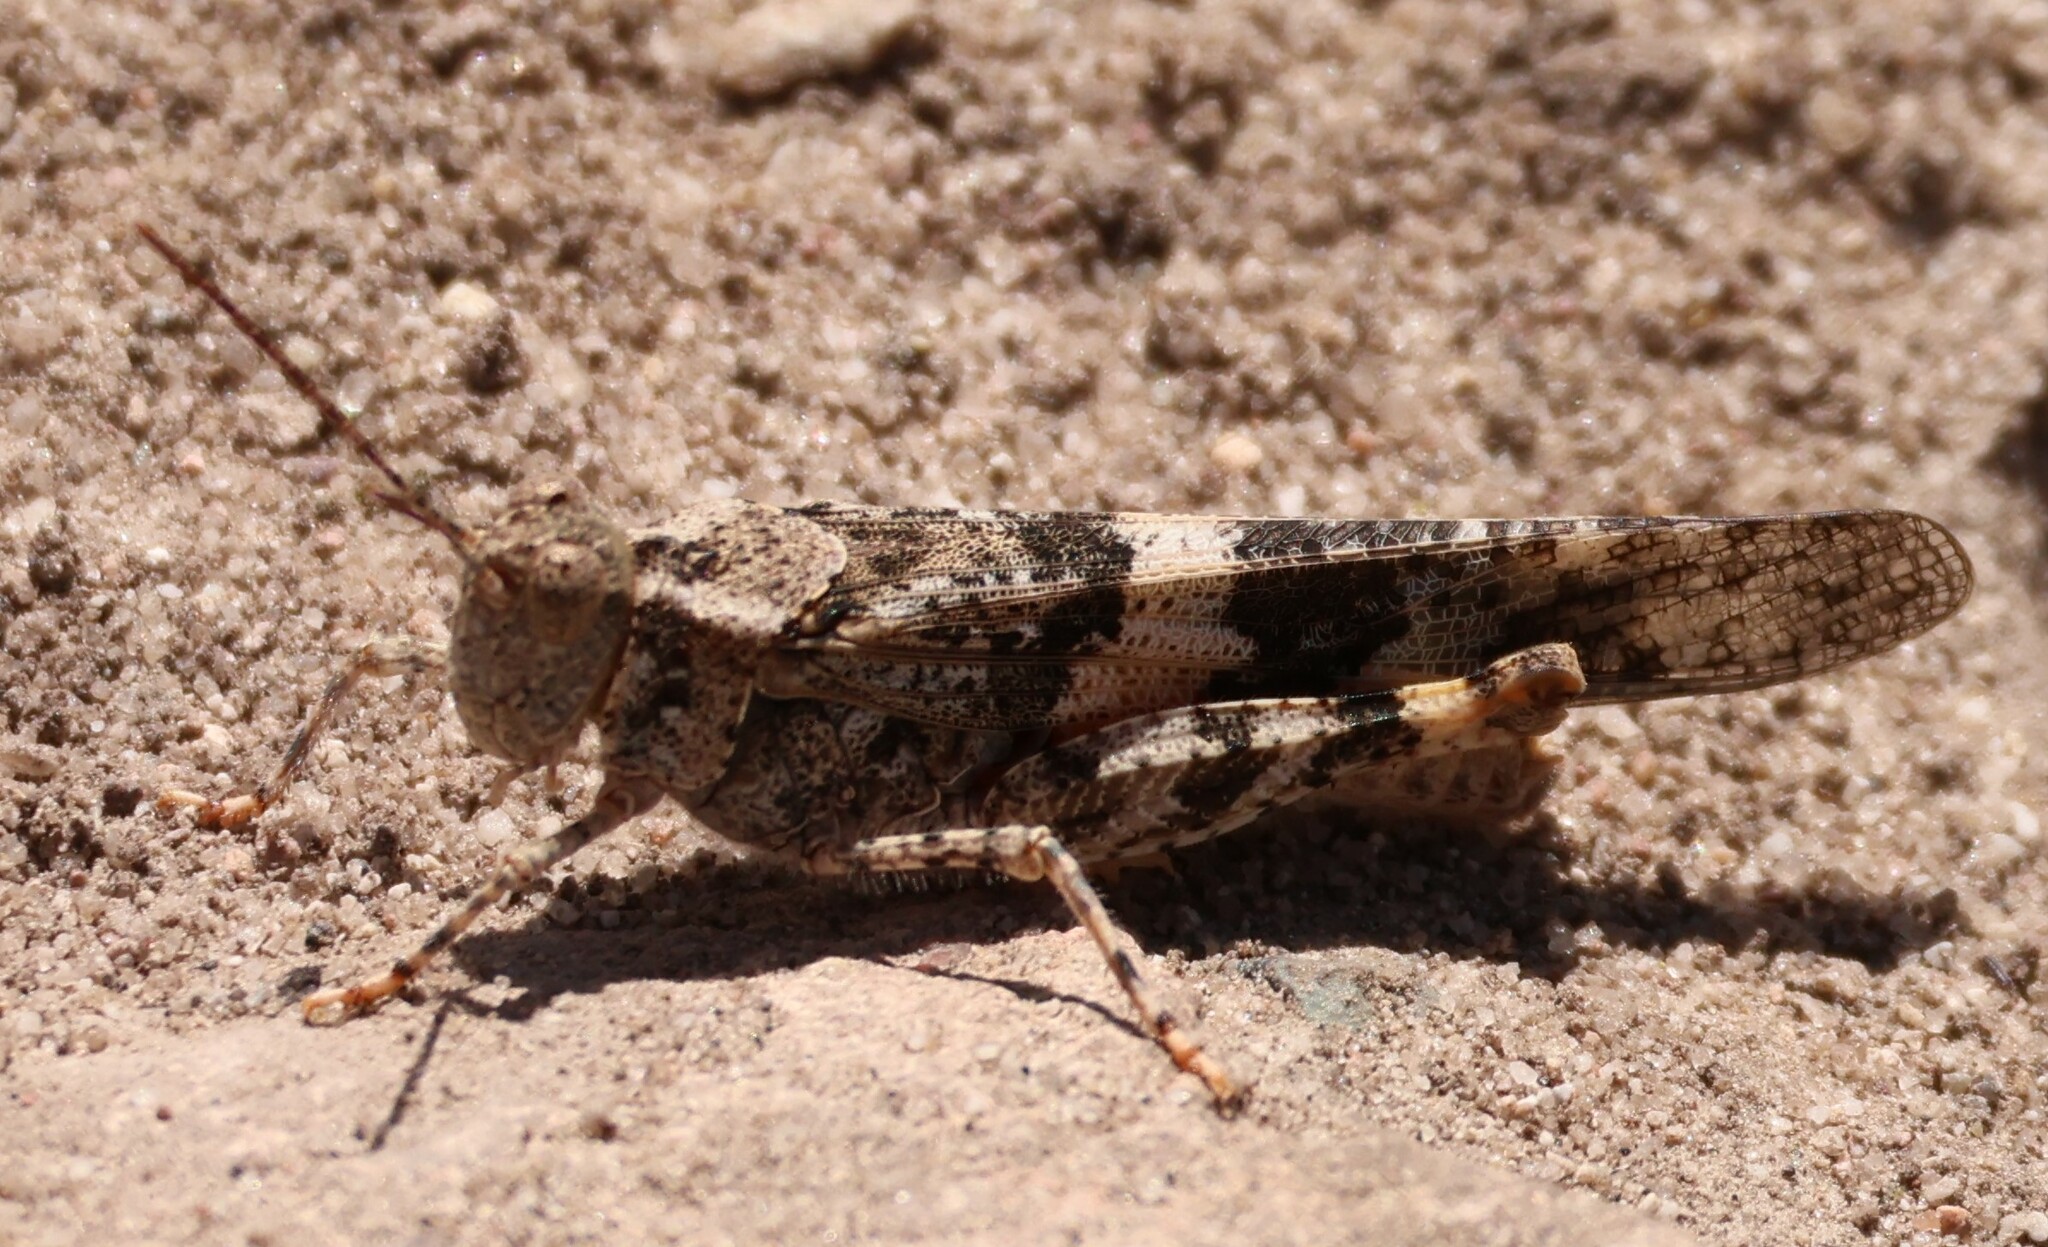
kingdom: Animalia
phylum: Arthropoda
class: Insecta
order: Orthoptera
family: Acrididae
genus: Trimerotropis
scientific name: Trimerotropis pallidipennis
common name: Pallid-winged grasshopper
